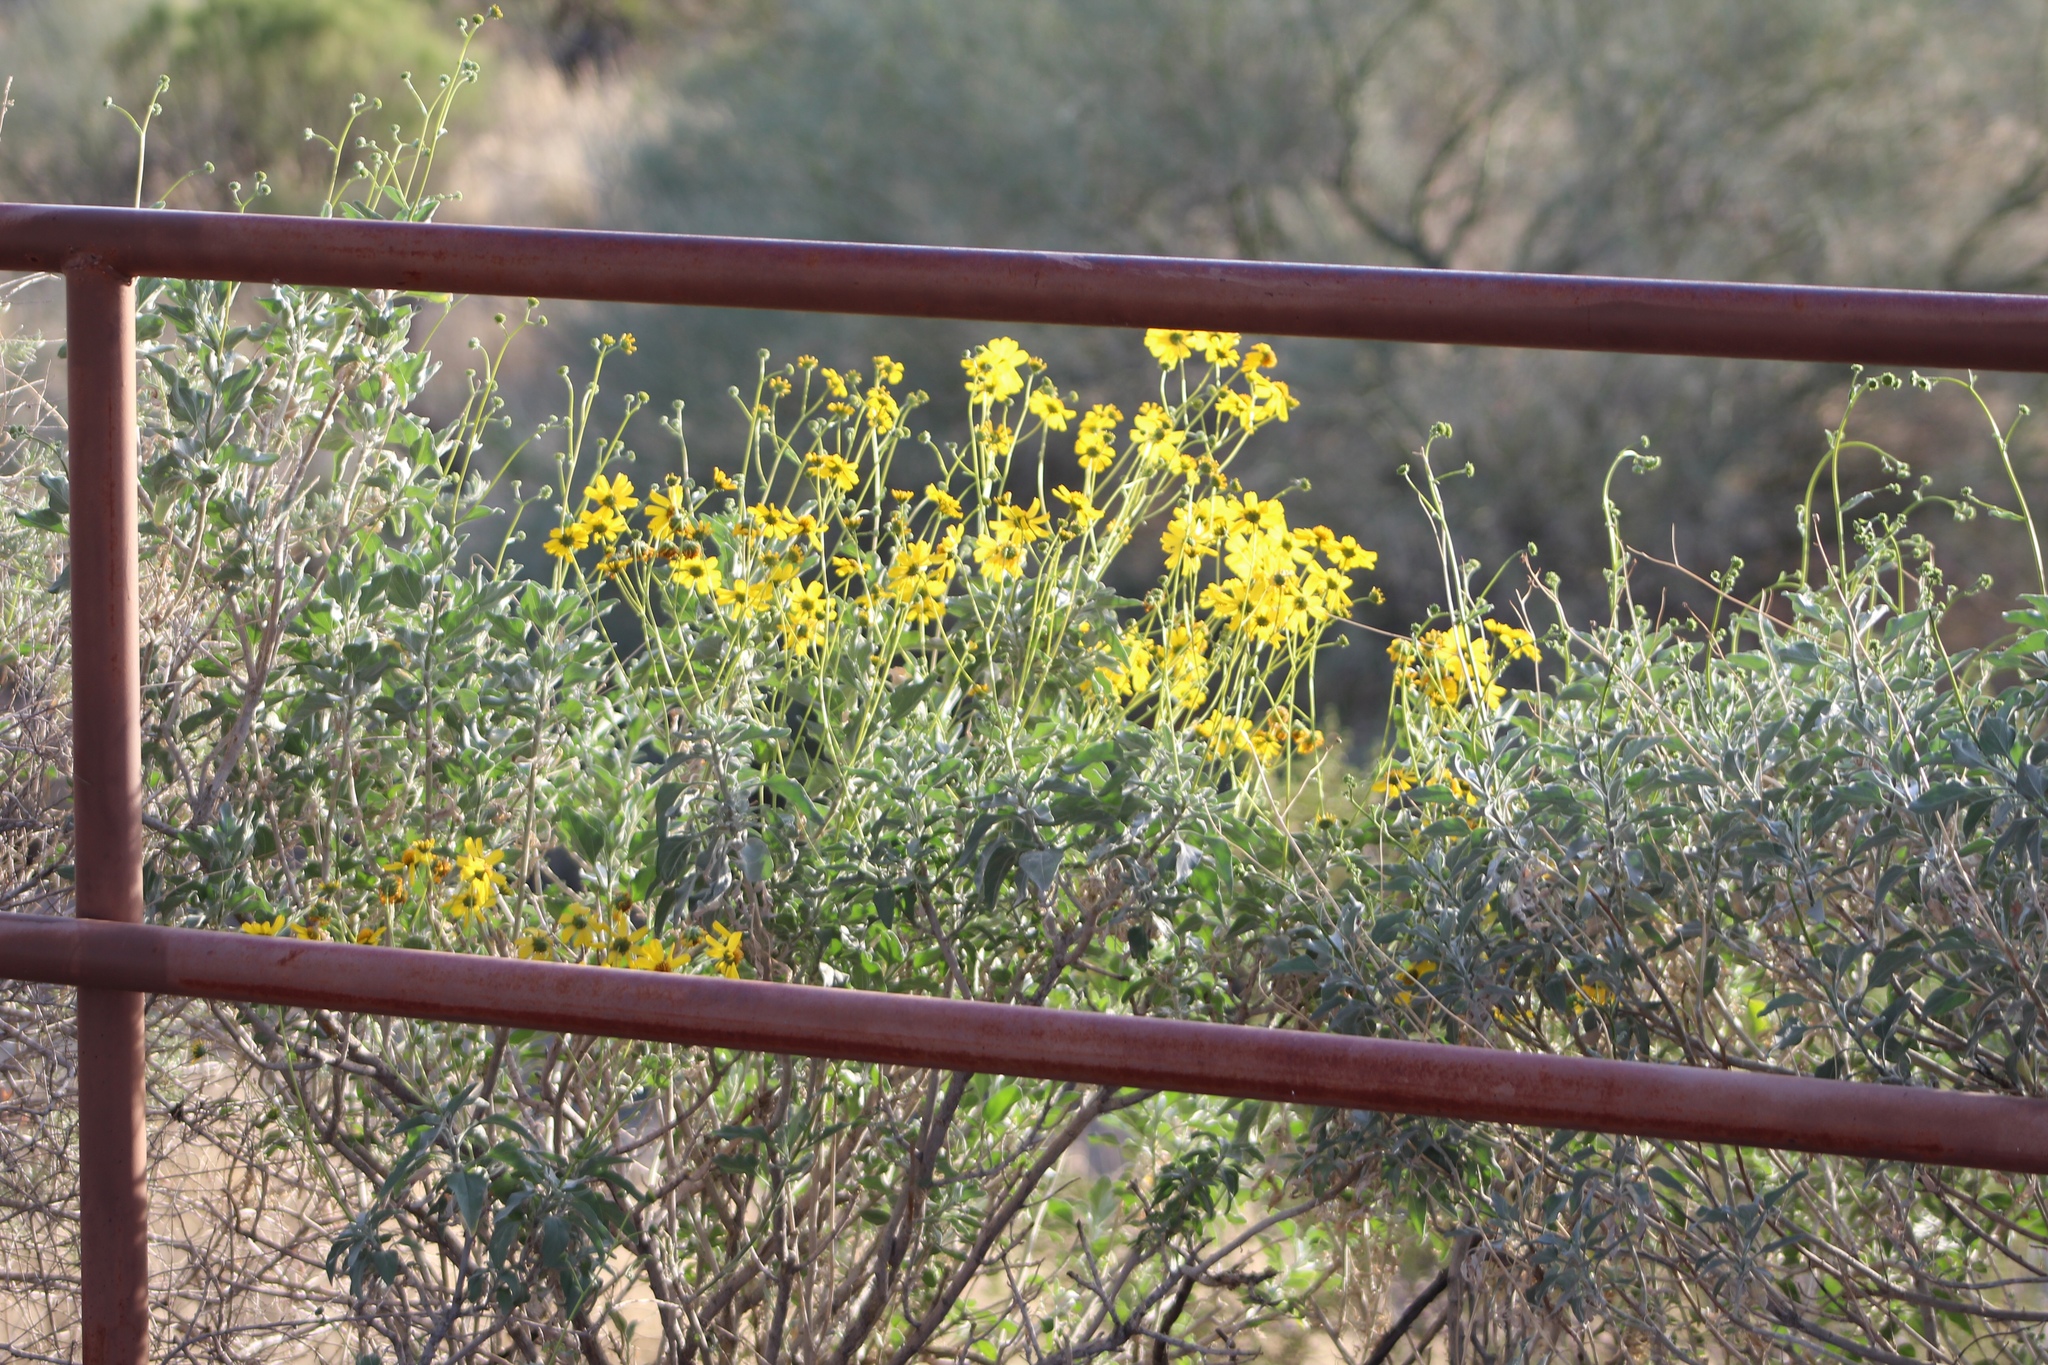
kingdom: Plantae
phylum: Tracheophyta
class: Magnoliopsida
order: Asterales
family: Asteraceae
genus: Encelia
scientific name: Encelia farinosa
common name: Brittlebush
